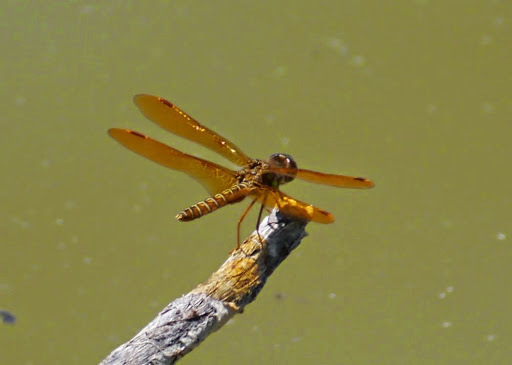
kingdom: Animalia
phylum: Arthropoda
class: Insecta
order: Odonata
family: Libellulidae
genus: Perithemis
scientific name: Perithemis tenera
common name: Eastern amberwing
